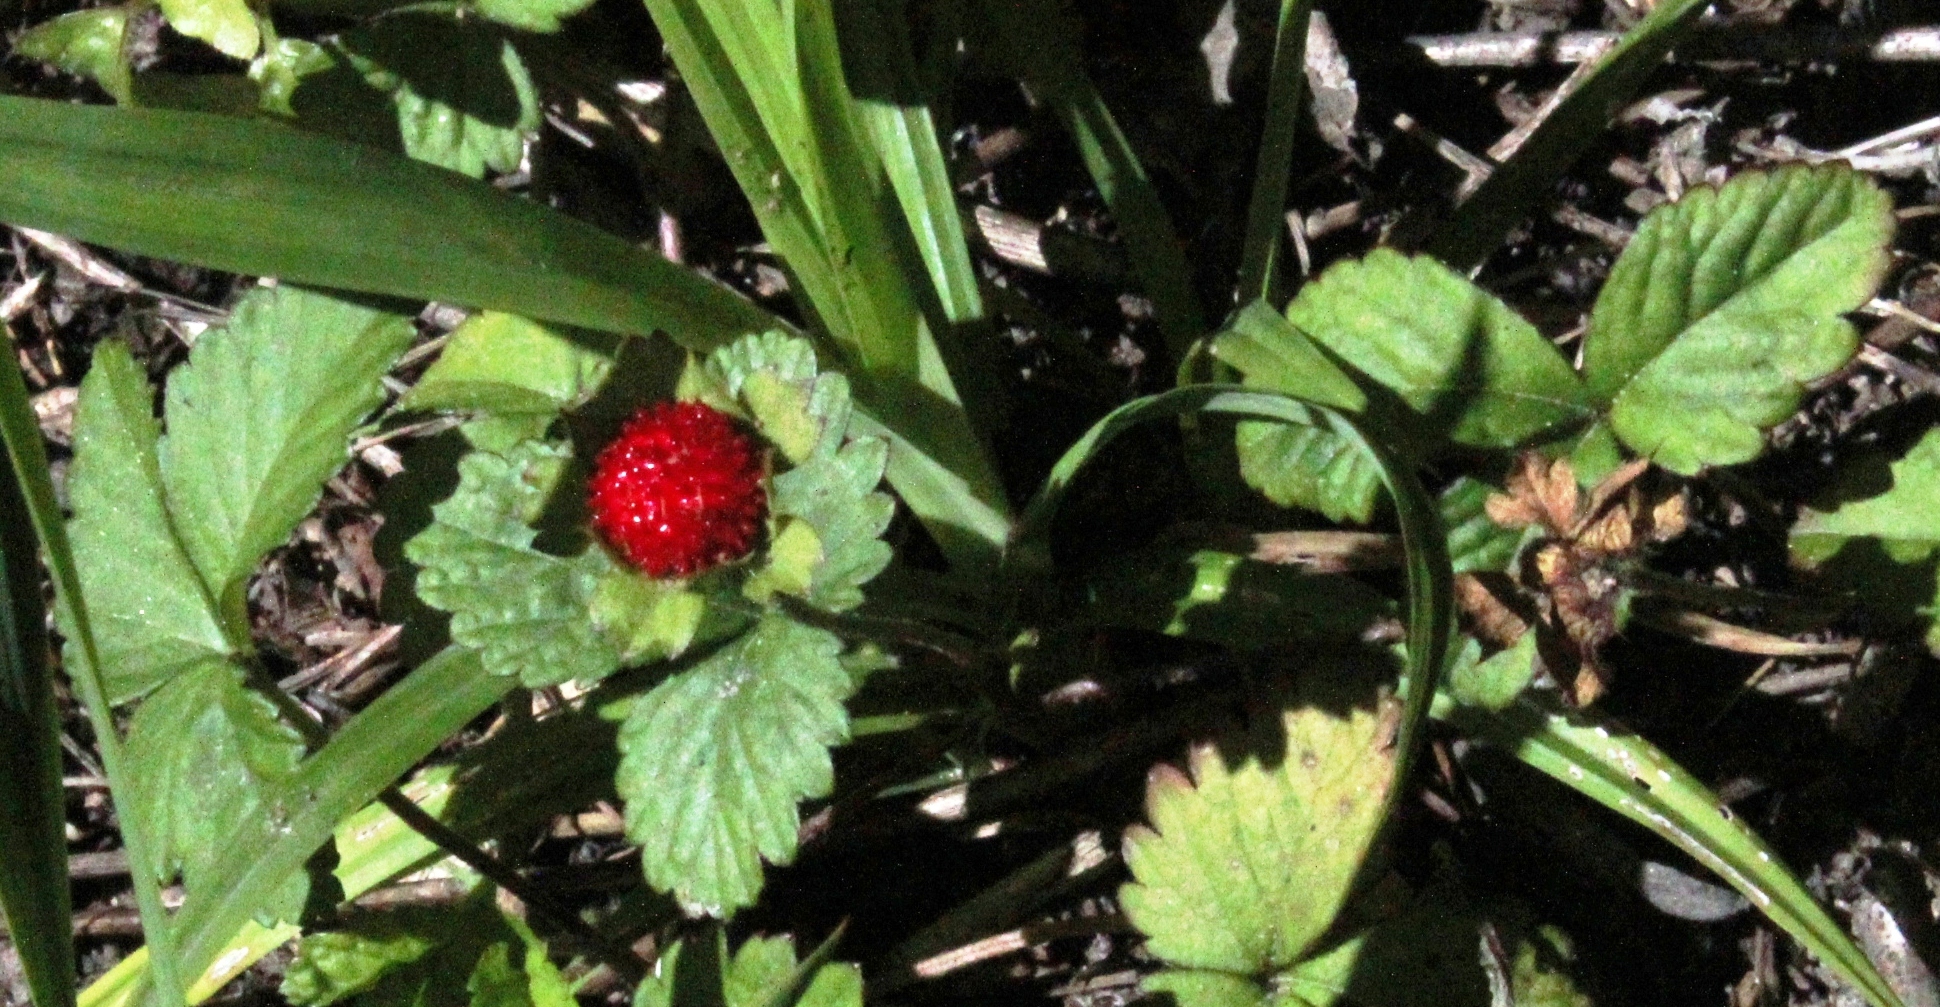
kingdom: Plantae
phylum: Tracheophyta
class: Magnoliopsida
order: Rosales
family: Rosaceae
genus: Potentilla
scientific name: Potentilla indica
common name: Yellow-flowered strawberry
